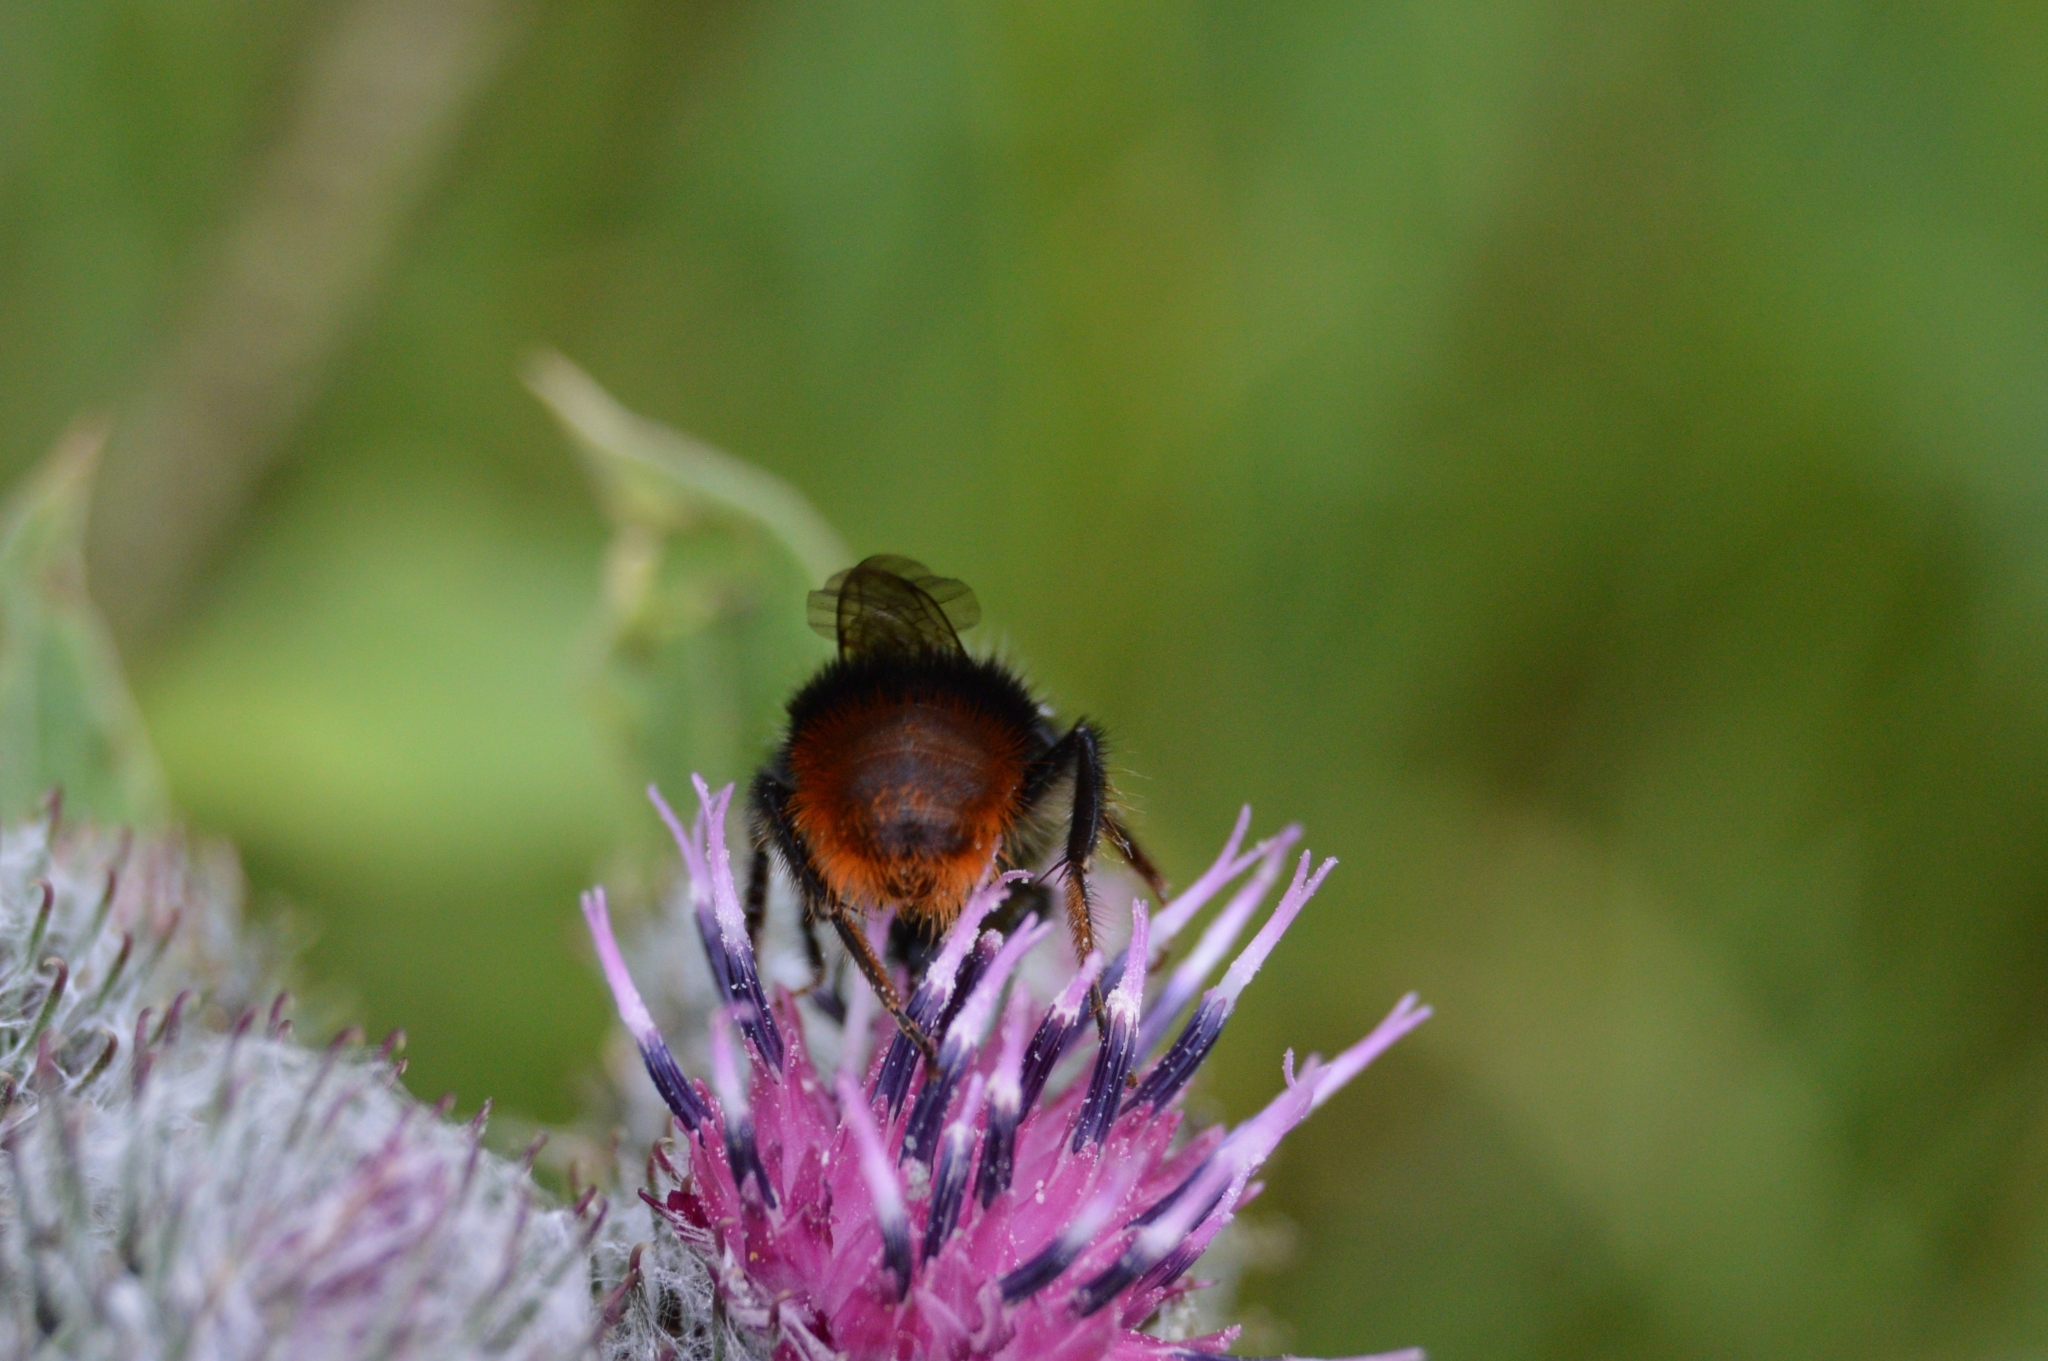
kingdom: Animalia
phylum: Arthropoda
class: Insecta
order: Hymenoptera
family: Apidae
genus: Bombus
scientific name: Bombus lapidarius
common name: Large red-tailed humble-bee
